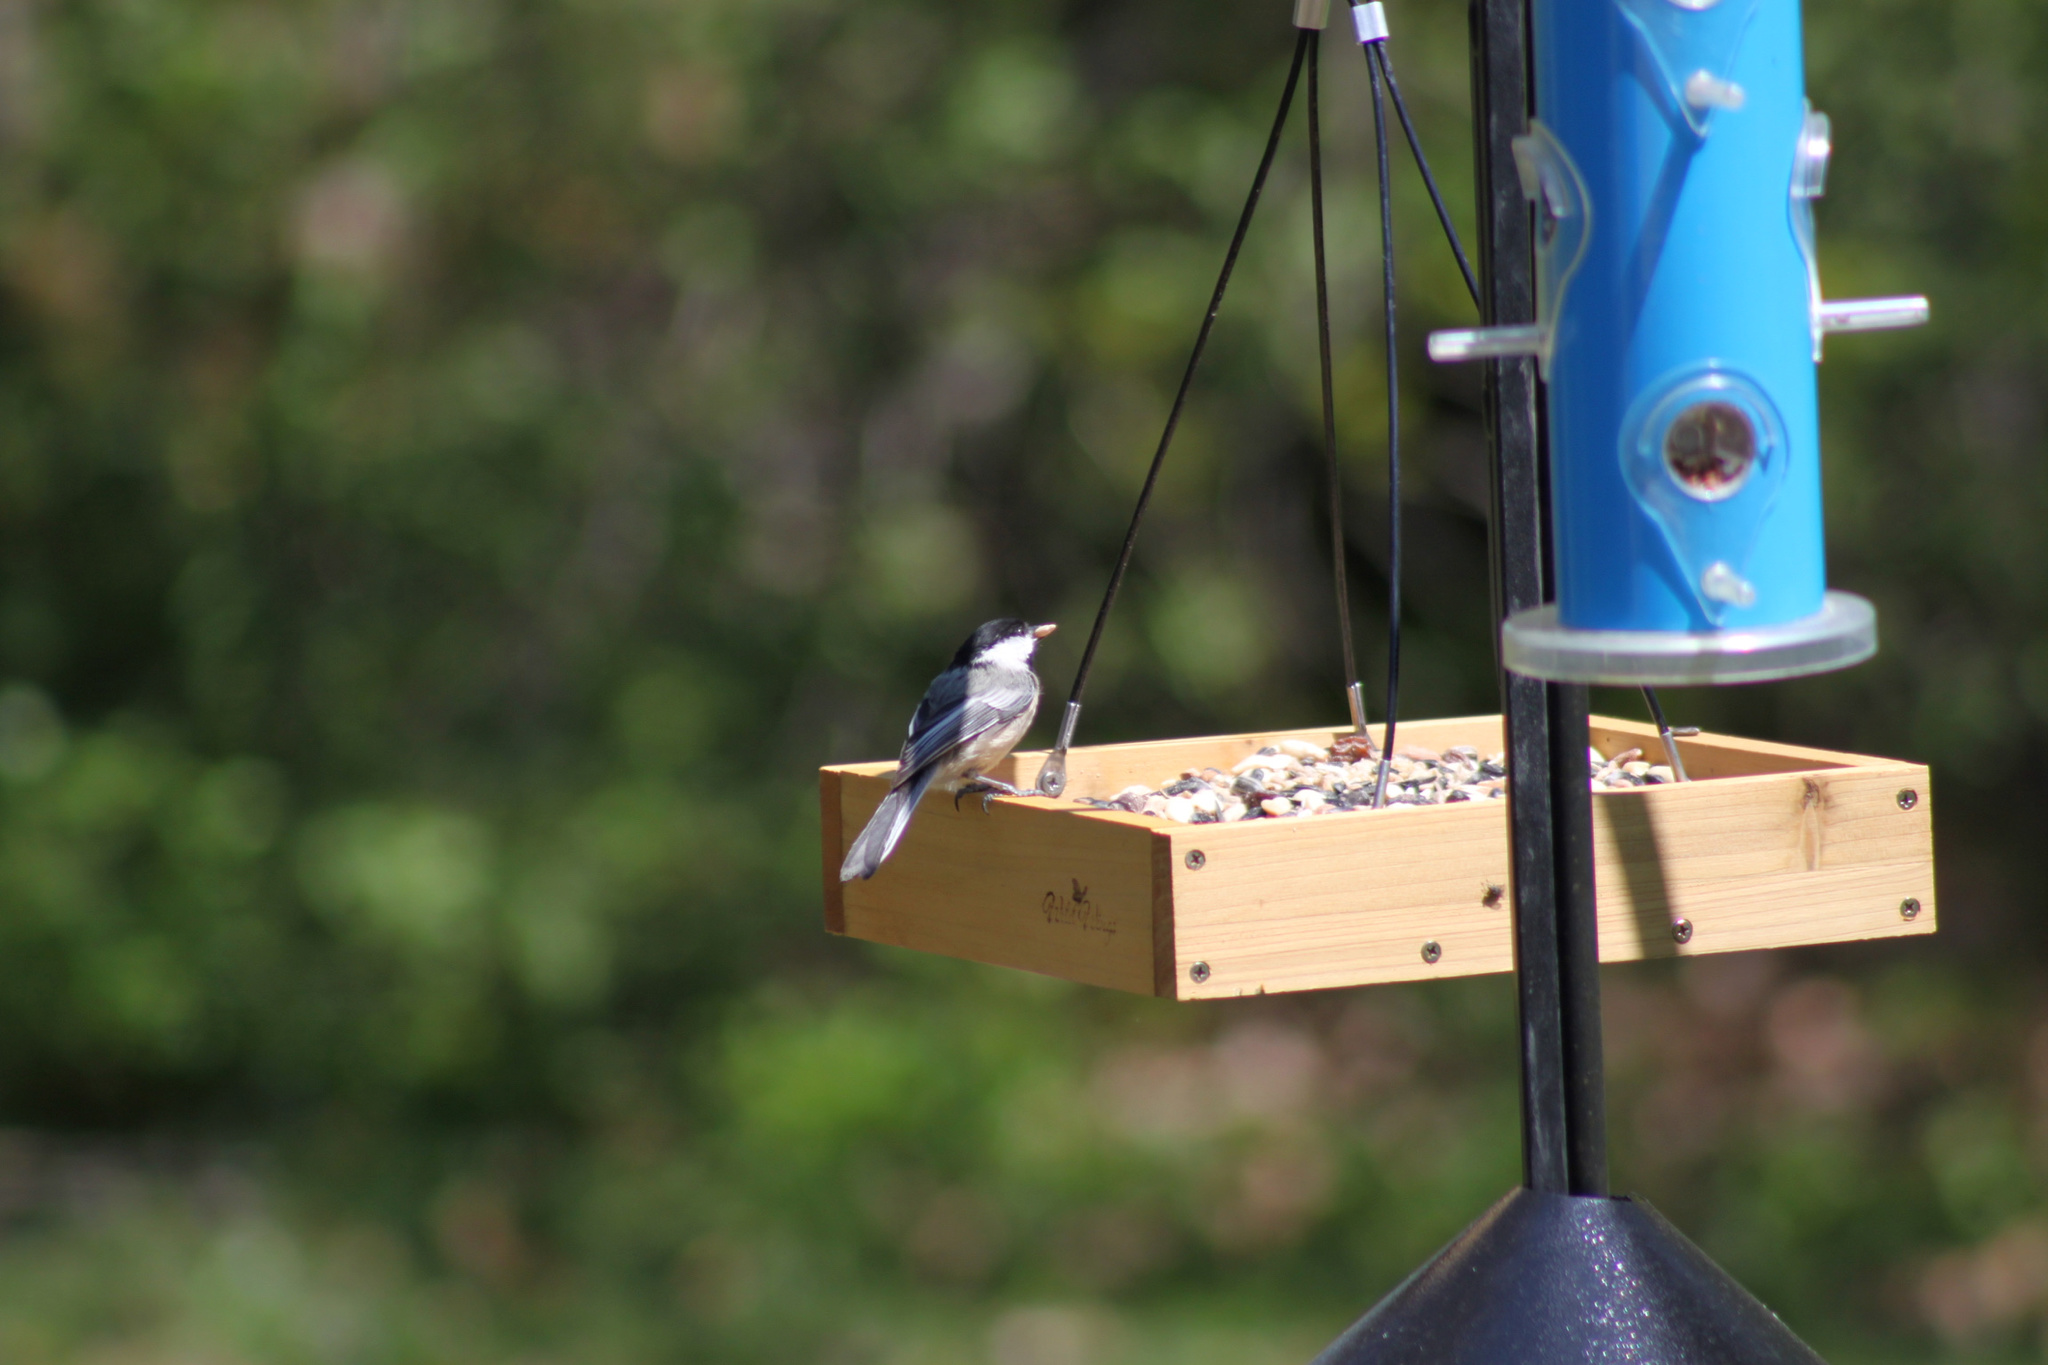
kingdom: Animalia
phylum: Chordata
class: Aves
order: Passeriformes
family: Paridae
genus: Poecile
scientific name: Poecile atricapillus
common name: Black-capped chickadee
